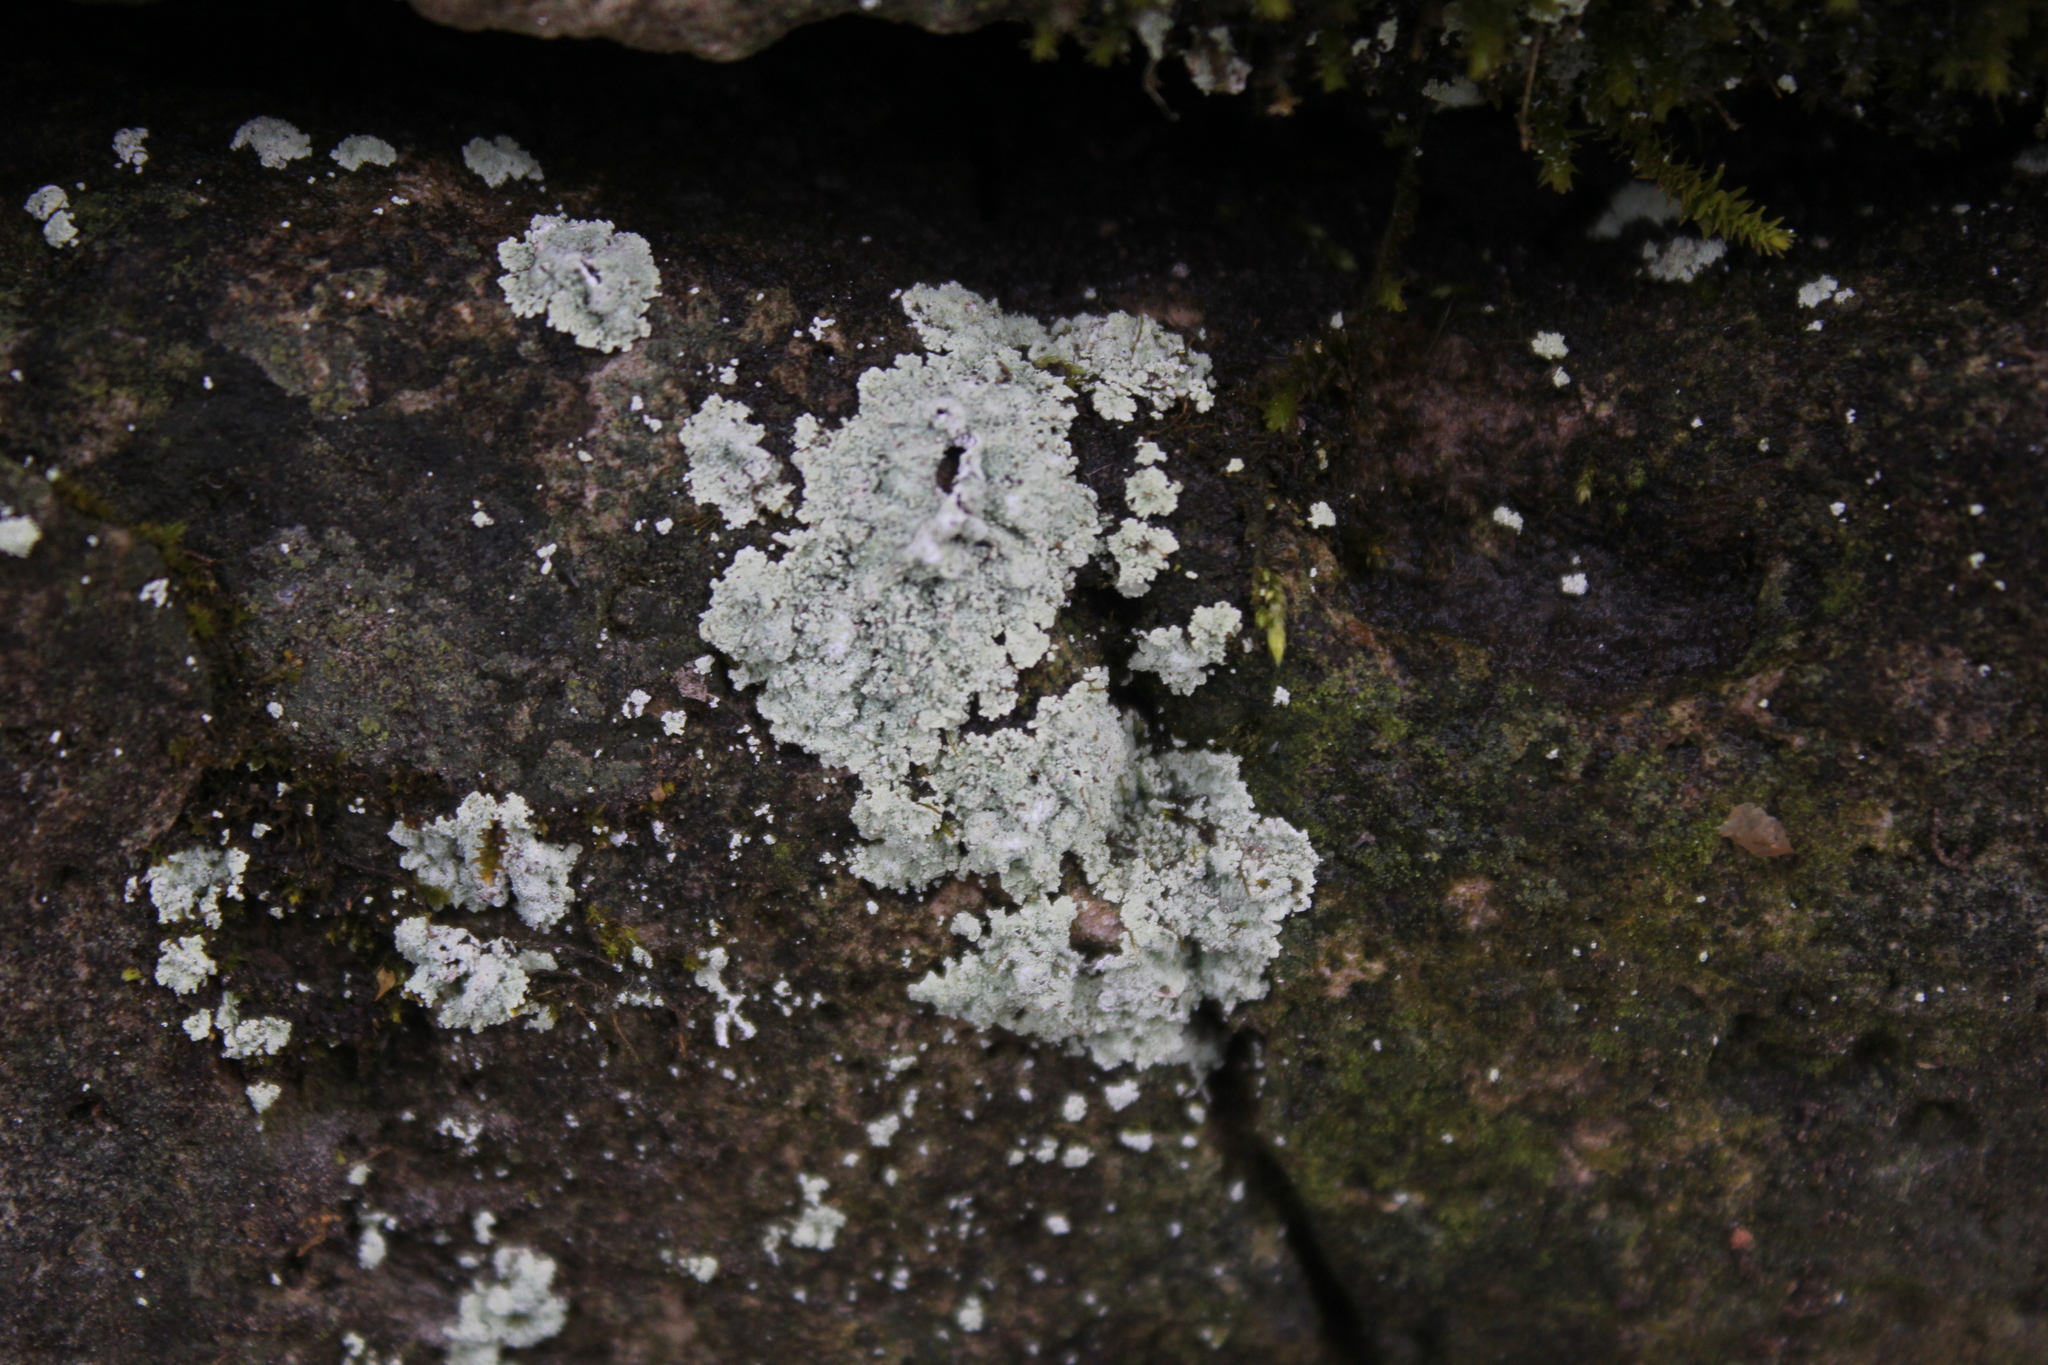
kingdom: Fungi
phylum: Ascomycota
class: Lecanoromycetes
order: Lecanorales
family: Stereocaulaceae
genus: Lepraria
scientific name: Lepraria lobificans
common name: Fluffy dust lichen
